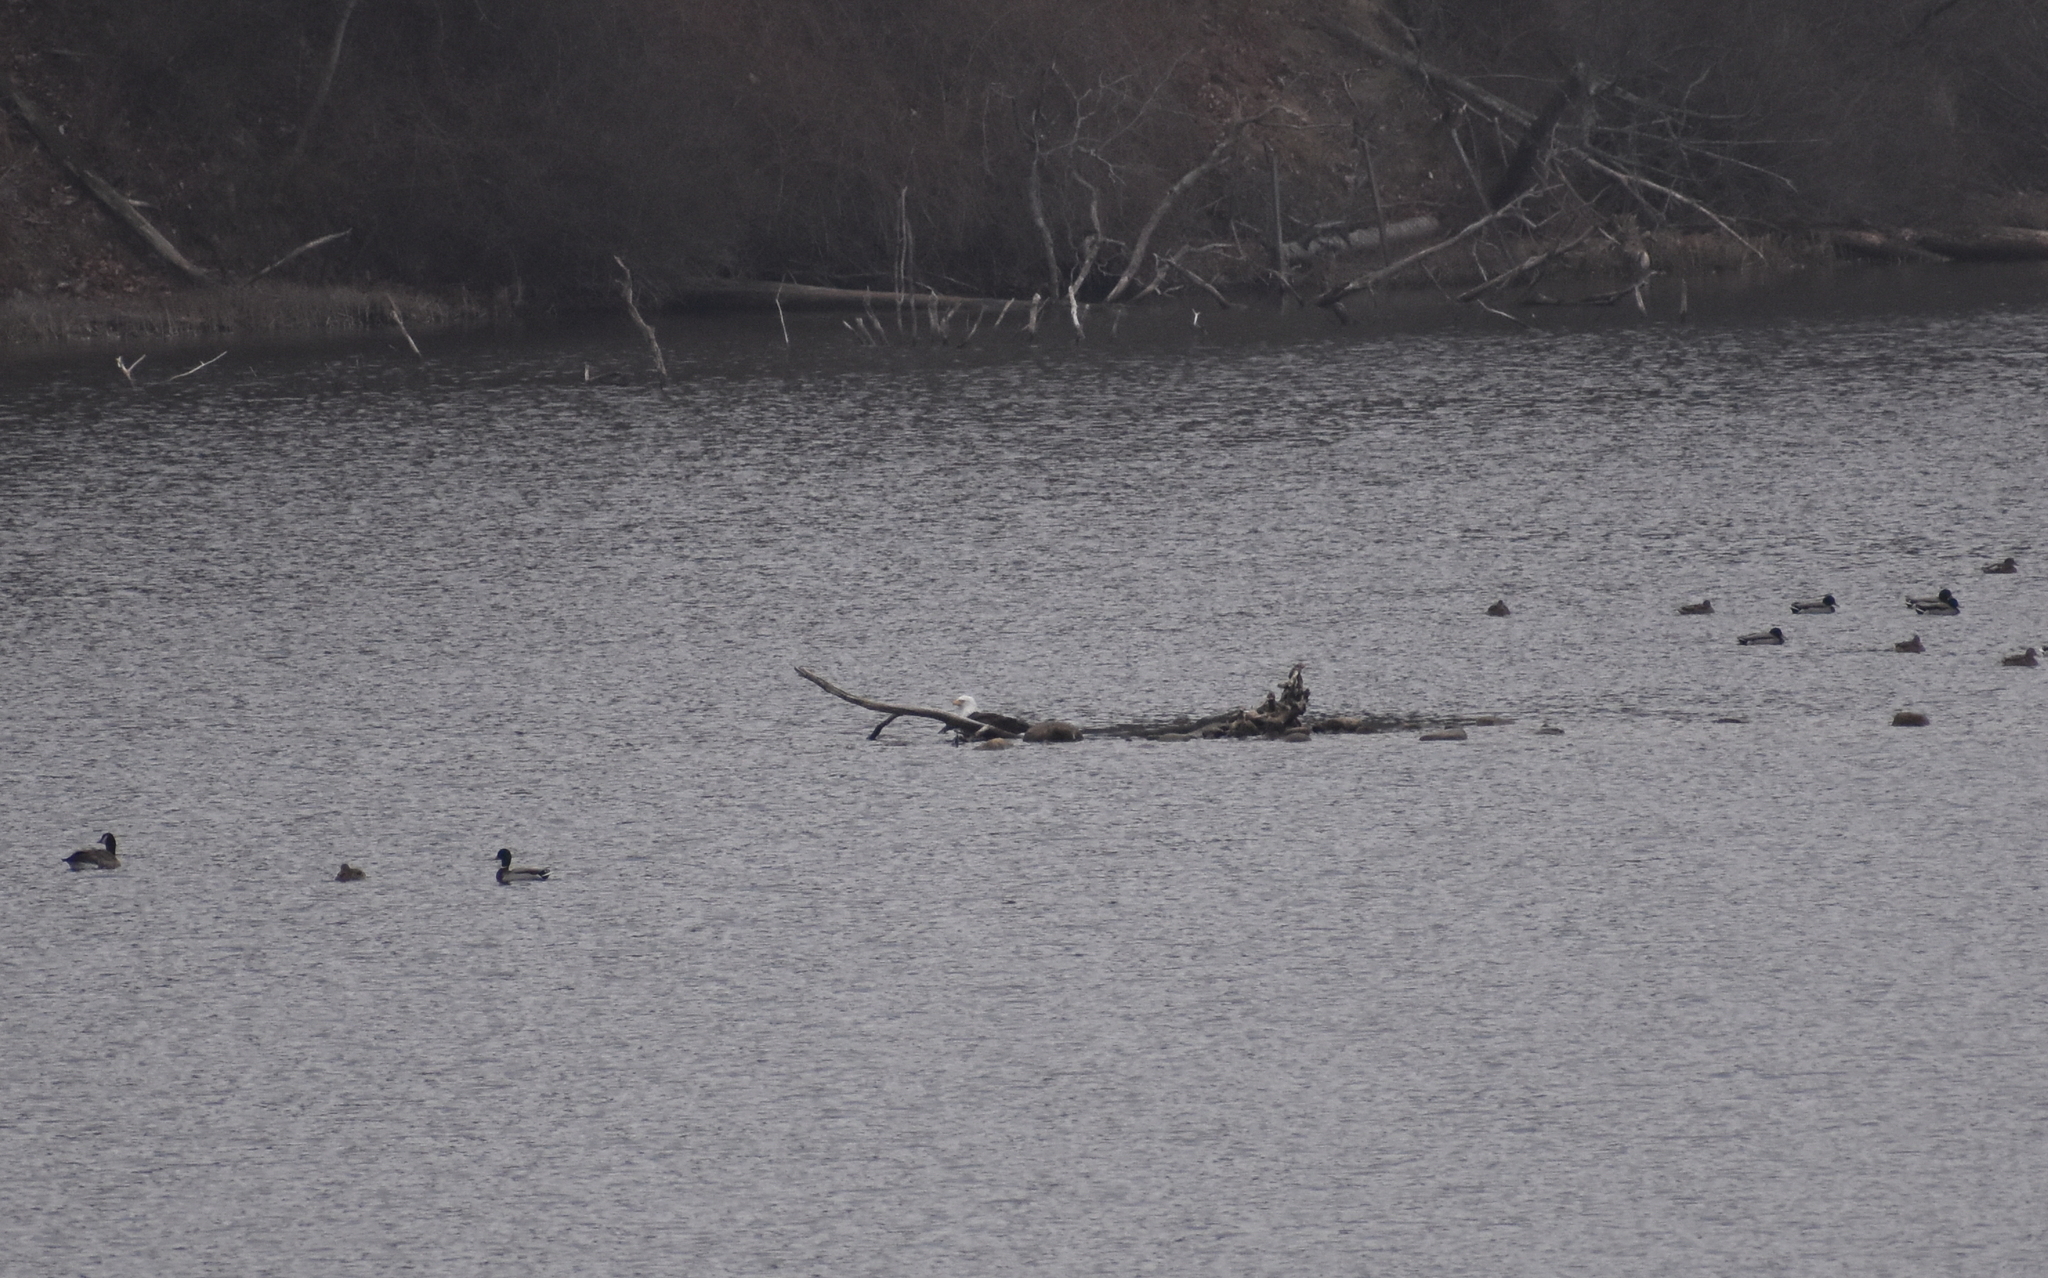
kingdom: Animalia
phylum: Chordata
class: Aves
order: Accipitriformes
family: Accipitridae
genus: Haliaeetus
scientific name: Haliaeetus leucocephalus
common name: Bald eagle
